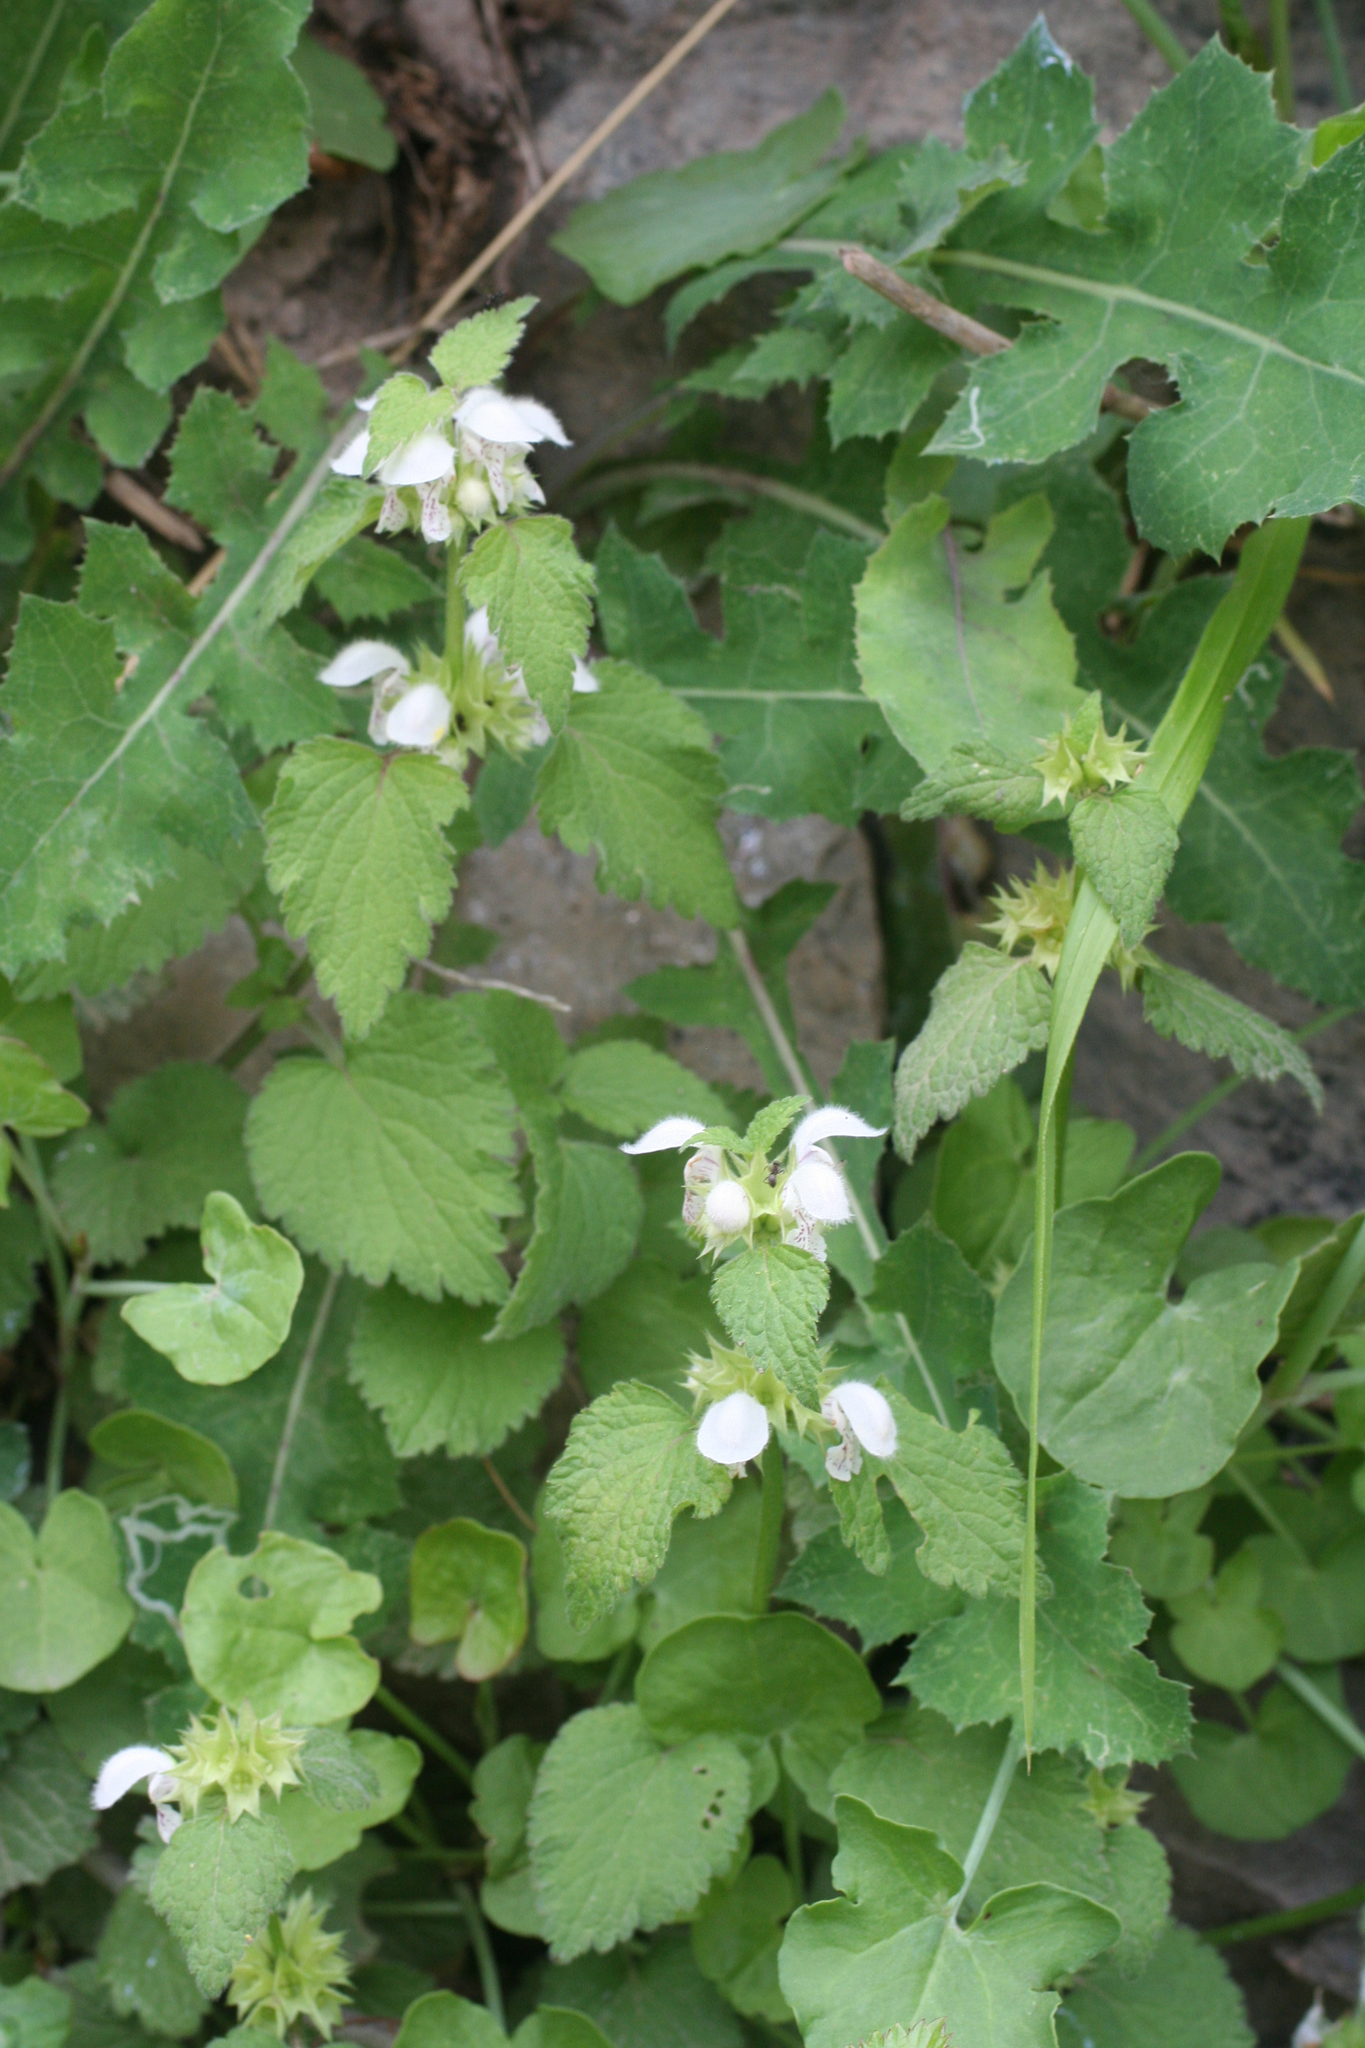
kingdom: Plantae
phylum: Tracheophyta
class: Magnoliopsida
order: Lamiales
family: Lamiaceae
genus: Lamium
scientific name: Lamium flexuosum
